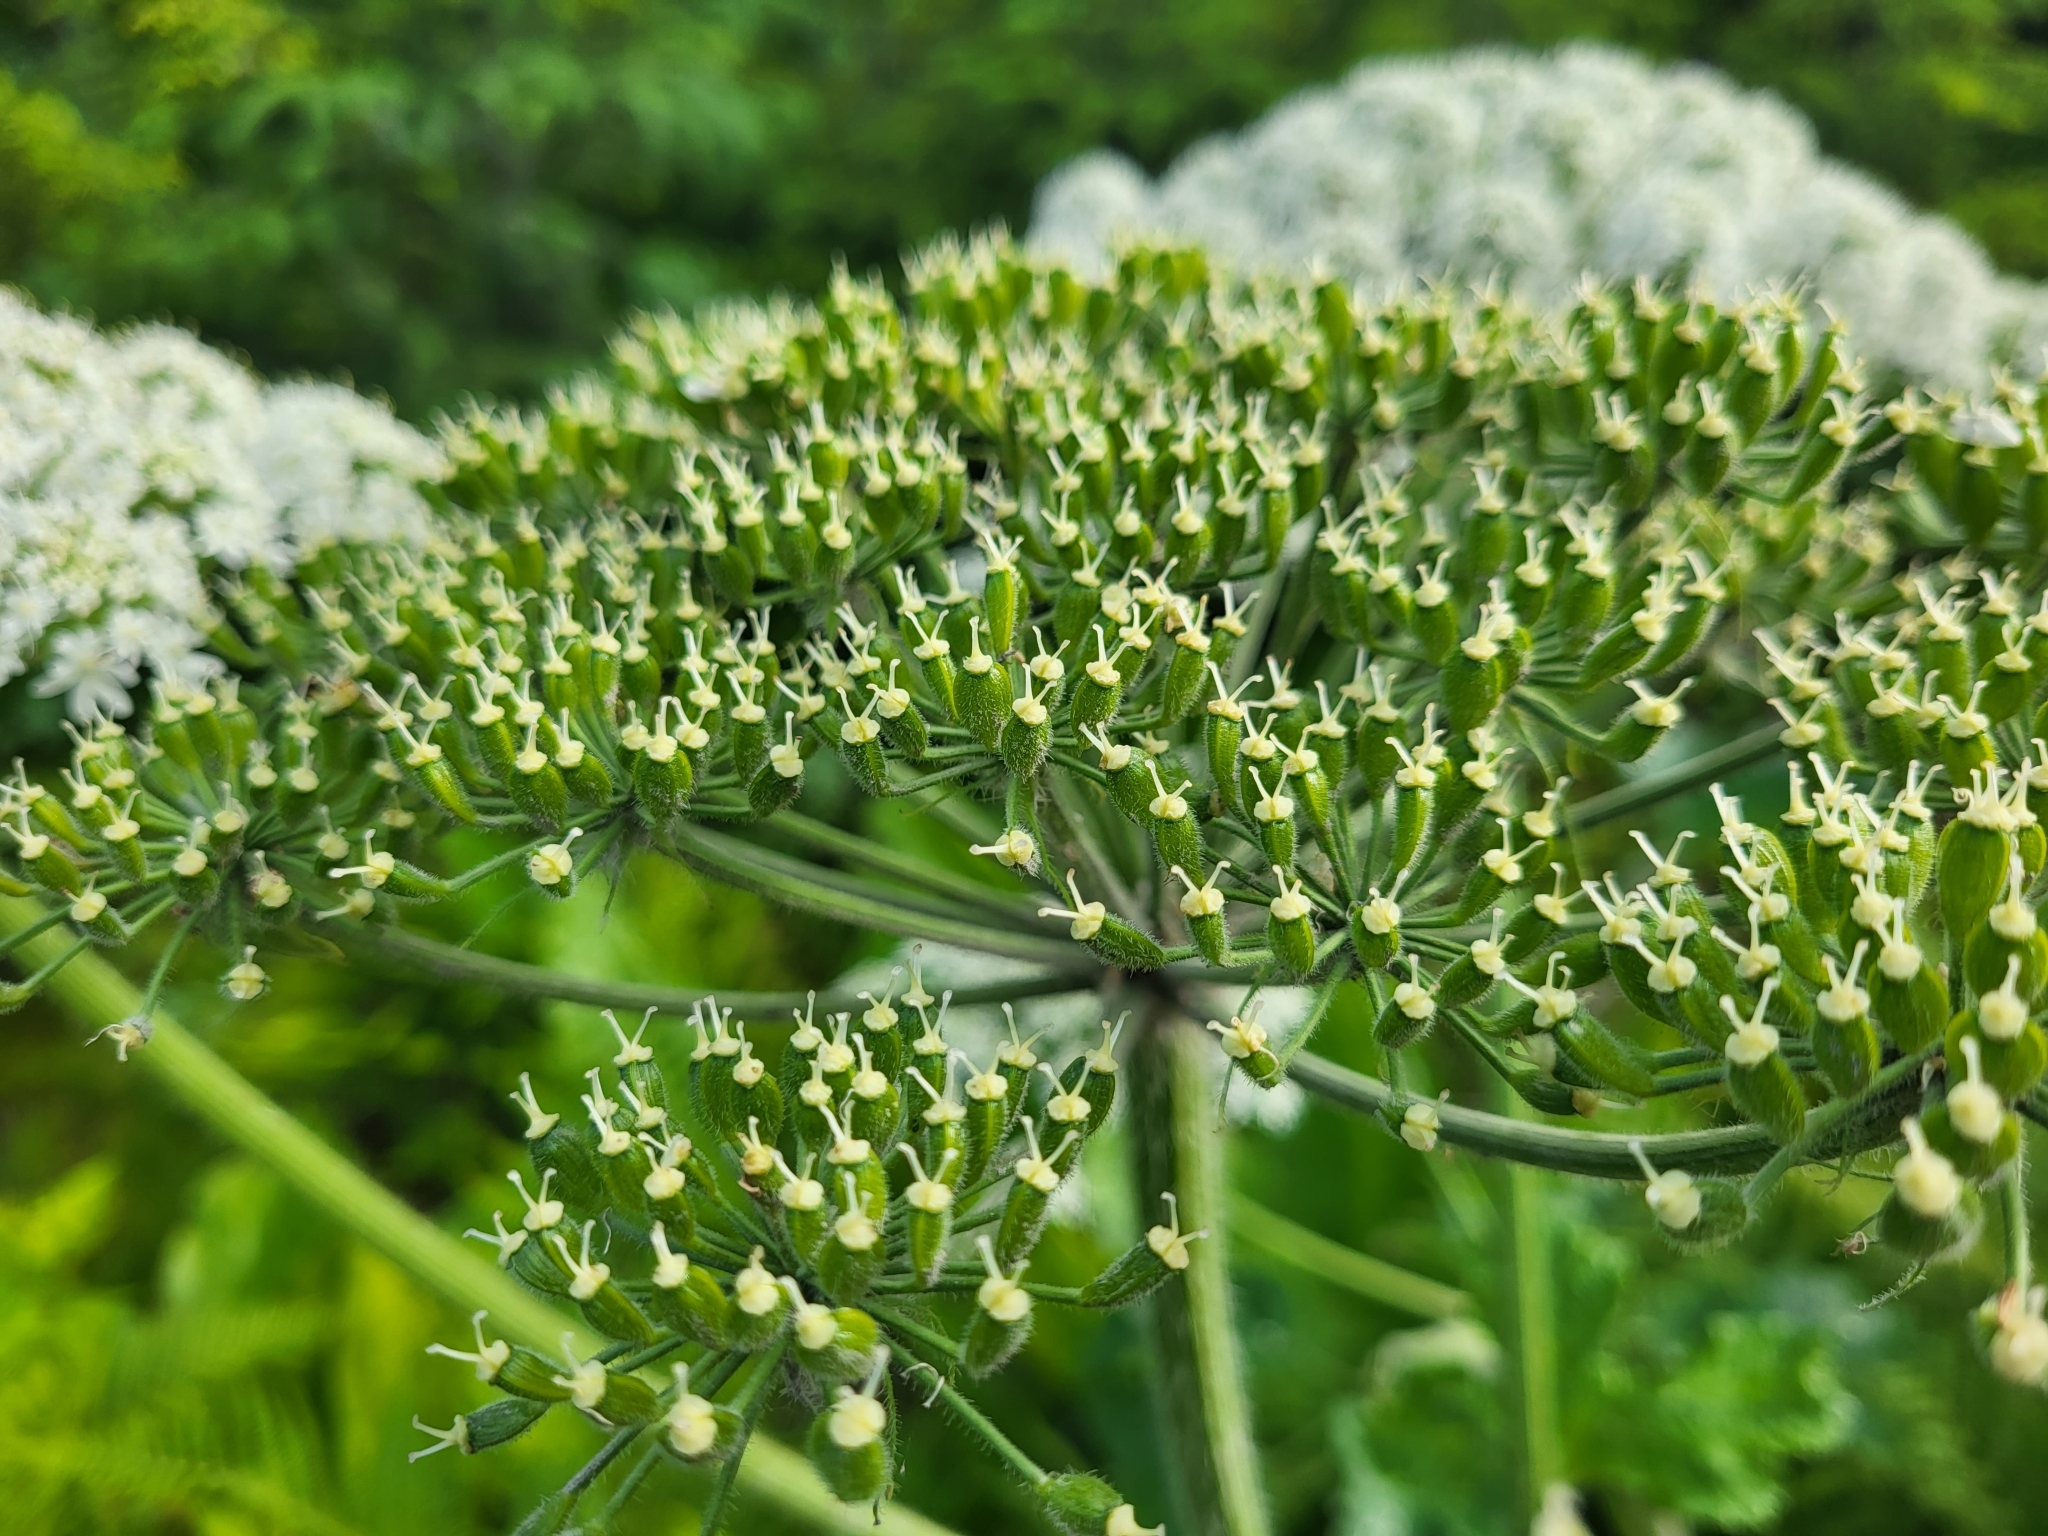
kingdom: Plantae
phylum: Tracheophyta
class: Magnoliopsida
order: Apiales
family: Apiaceae
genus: Heracleum
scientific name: Heracleum maximum
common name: American cow parsnip
